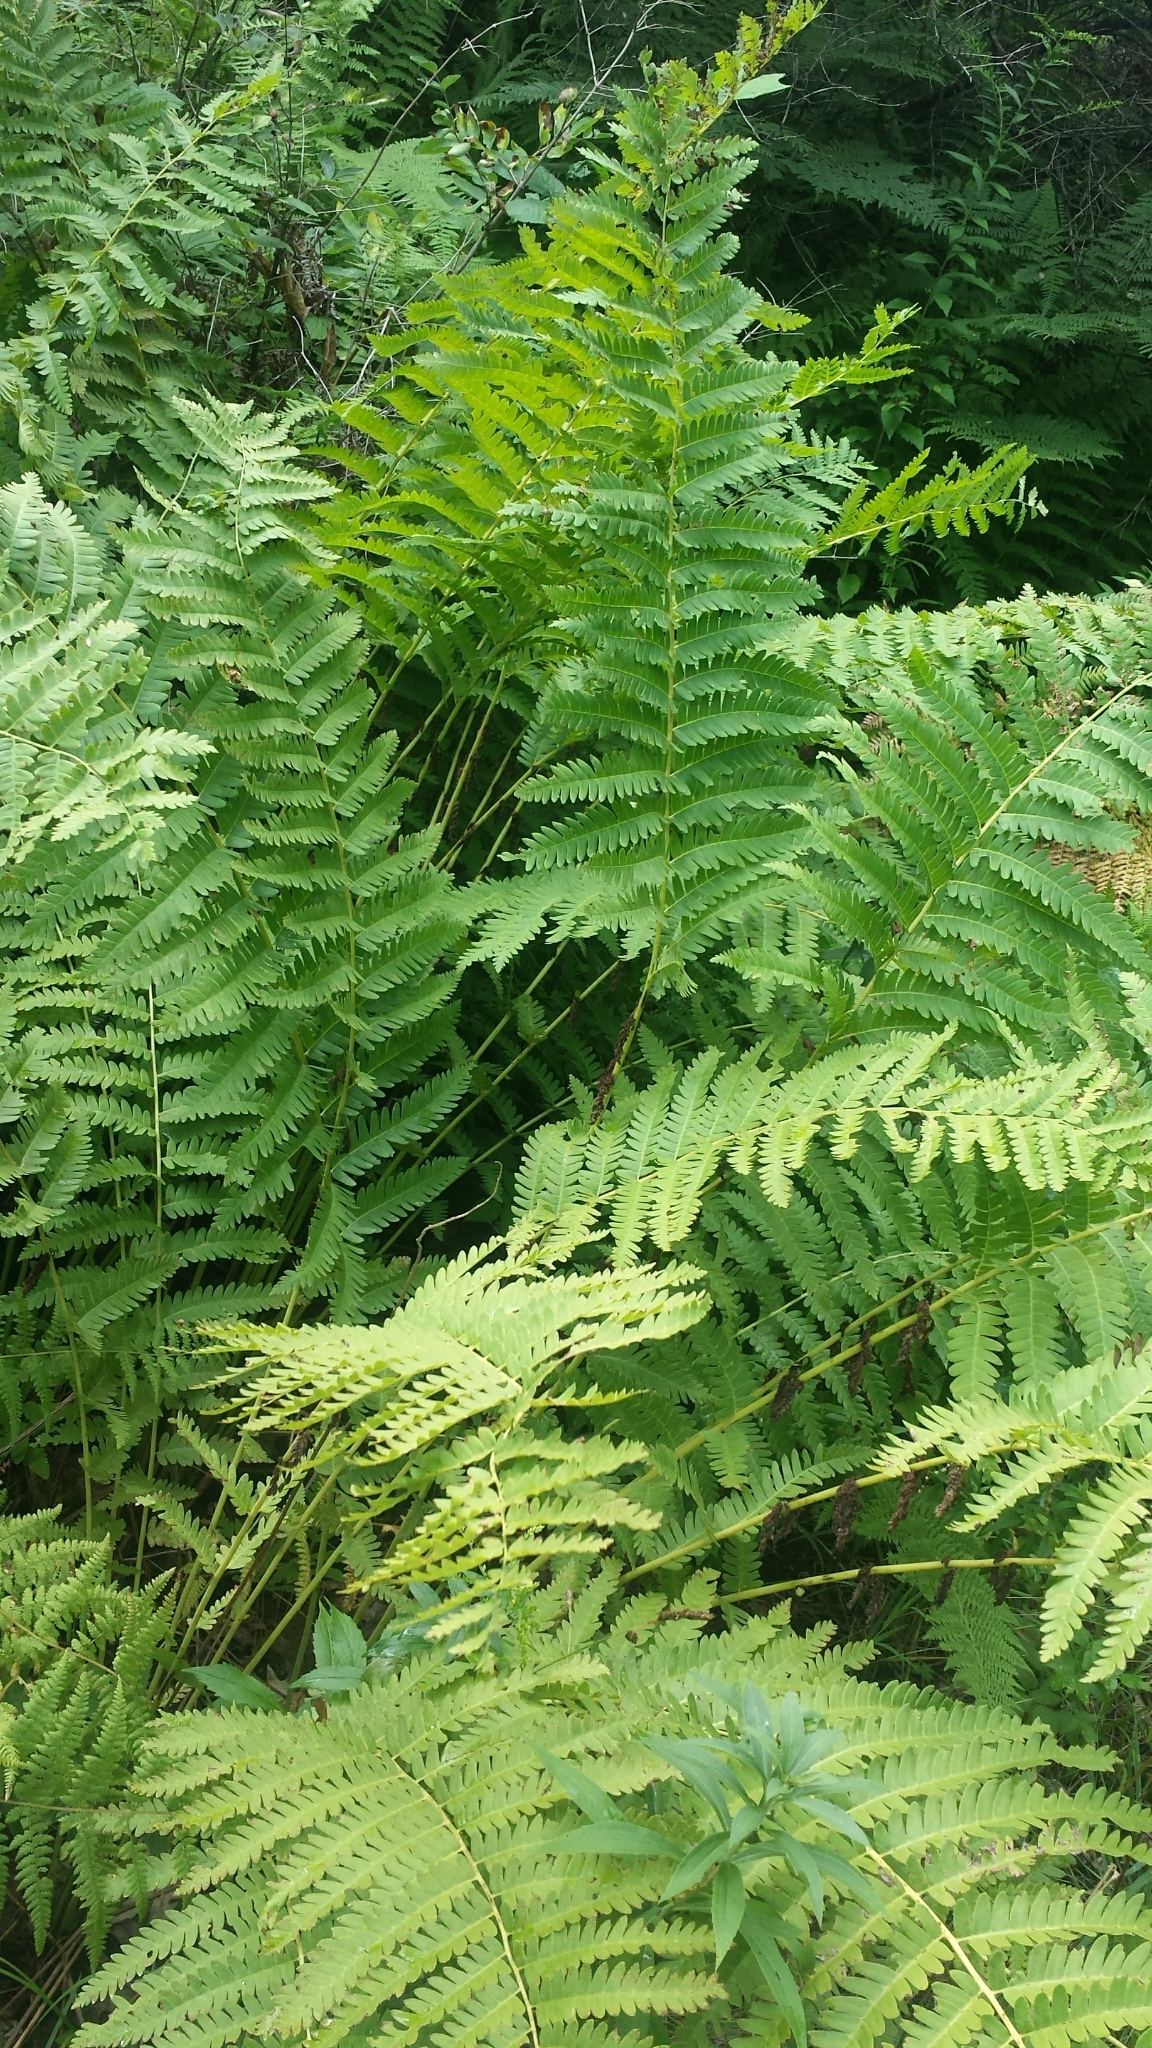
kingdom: Plantae
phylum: Tracheophyta
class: Polypodiopsida
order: Osmundales
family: Osmundaceae
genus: Claytosmunda
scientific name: Claytosmunda claytoniana
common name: Clayton's fern
